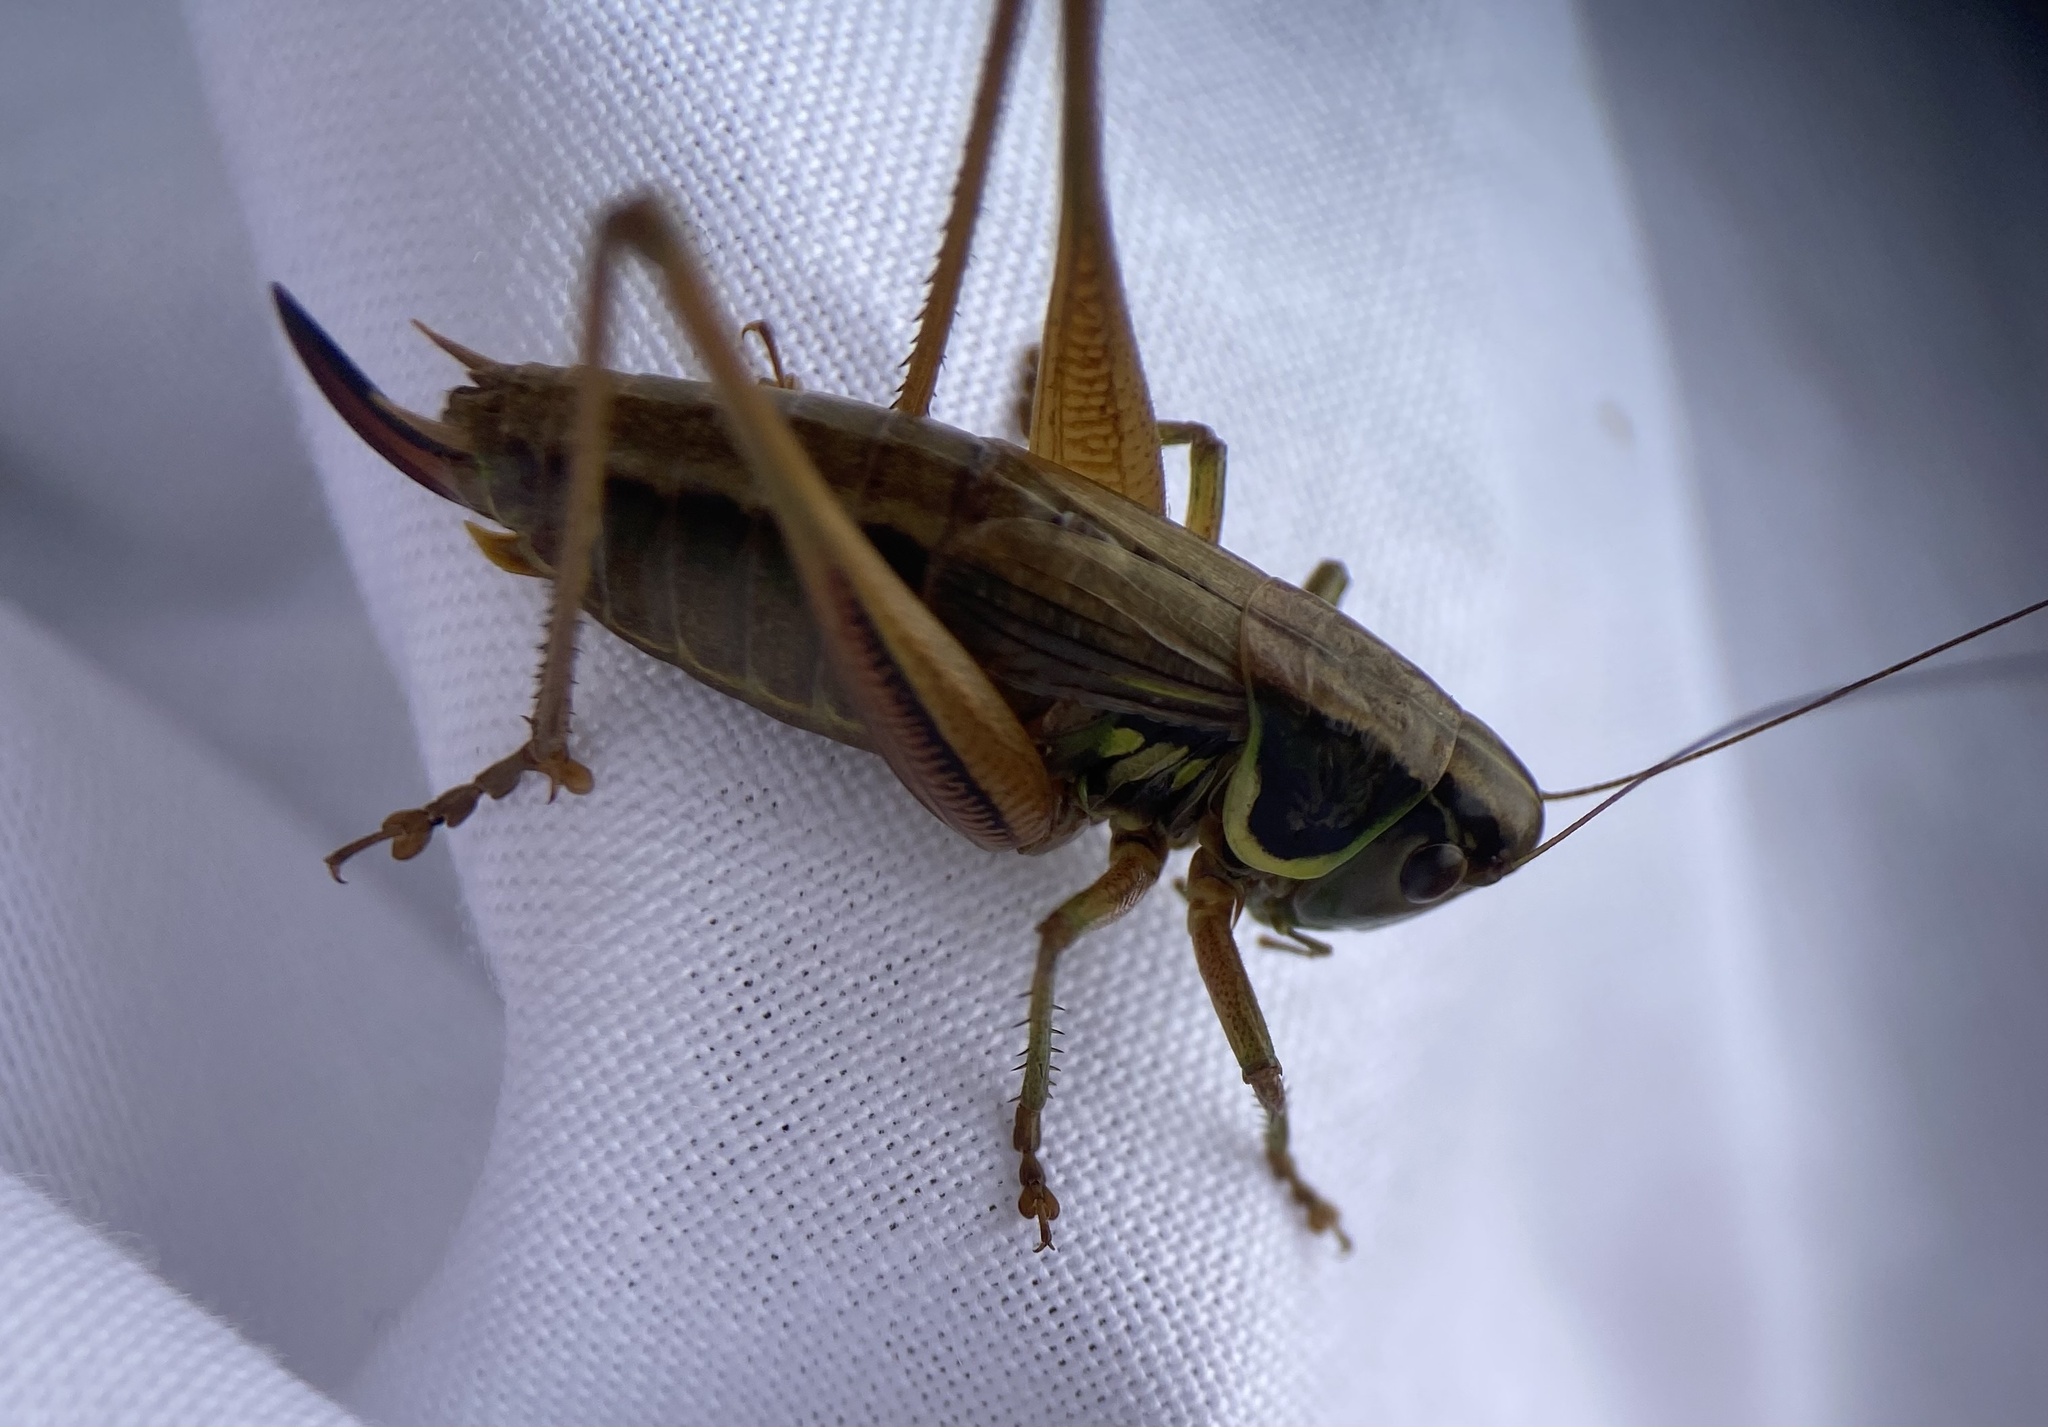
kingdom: Animalia
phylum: Arthropoda
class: Insecta
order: Orthoptera
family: Tettigoniidae
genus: Roeseliana
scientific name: Roeseliana roeselii
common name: Roesel's bush cricket
